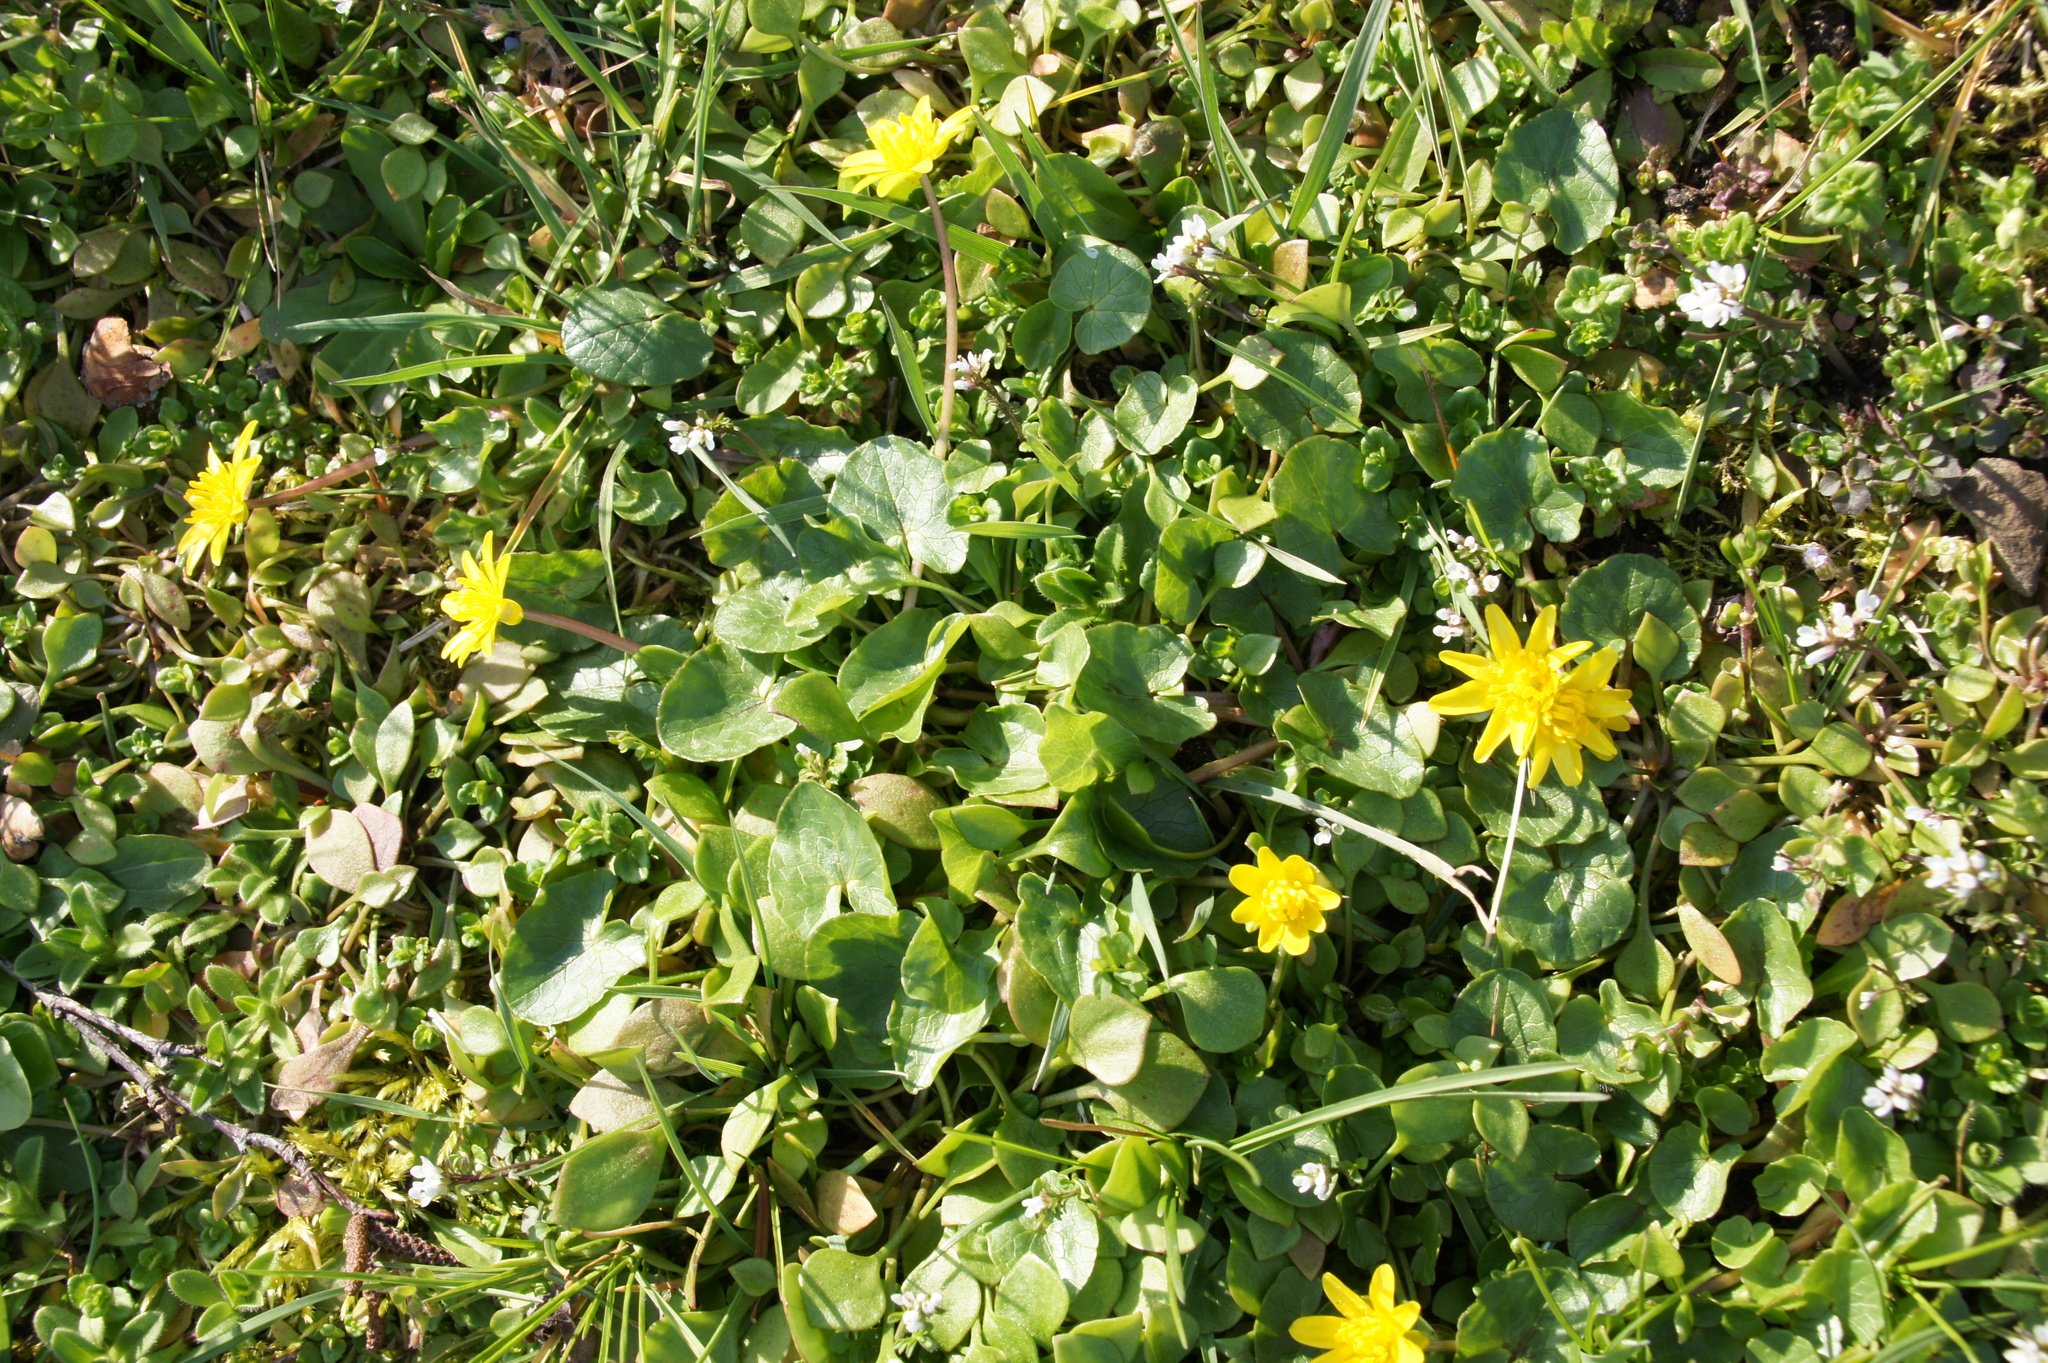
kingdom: Plantae
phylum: Tracheophyta
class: Magnoliopsida
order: Ranunculales
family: Ranunculaceae
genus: Ficaria
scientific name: Ficaria verna
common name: Lesser celandine
